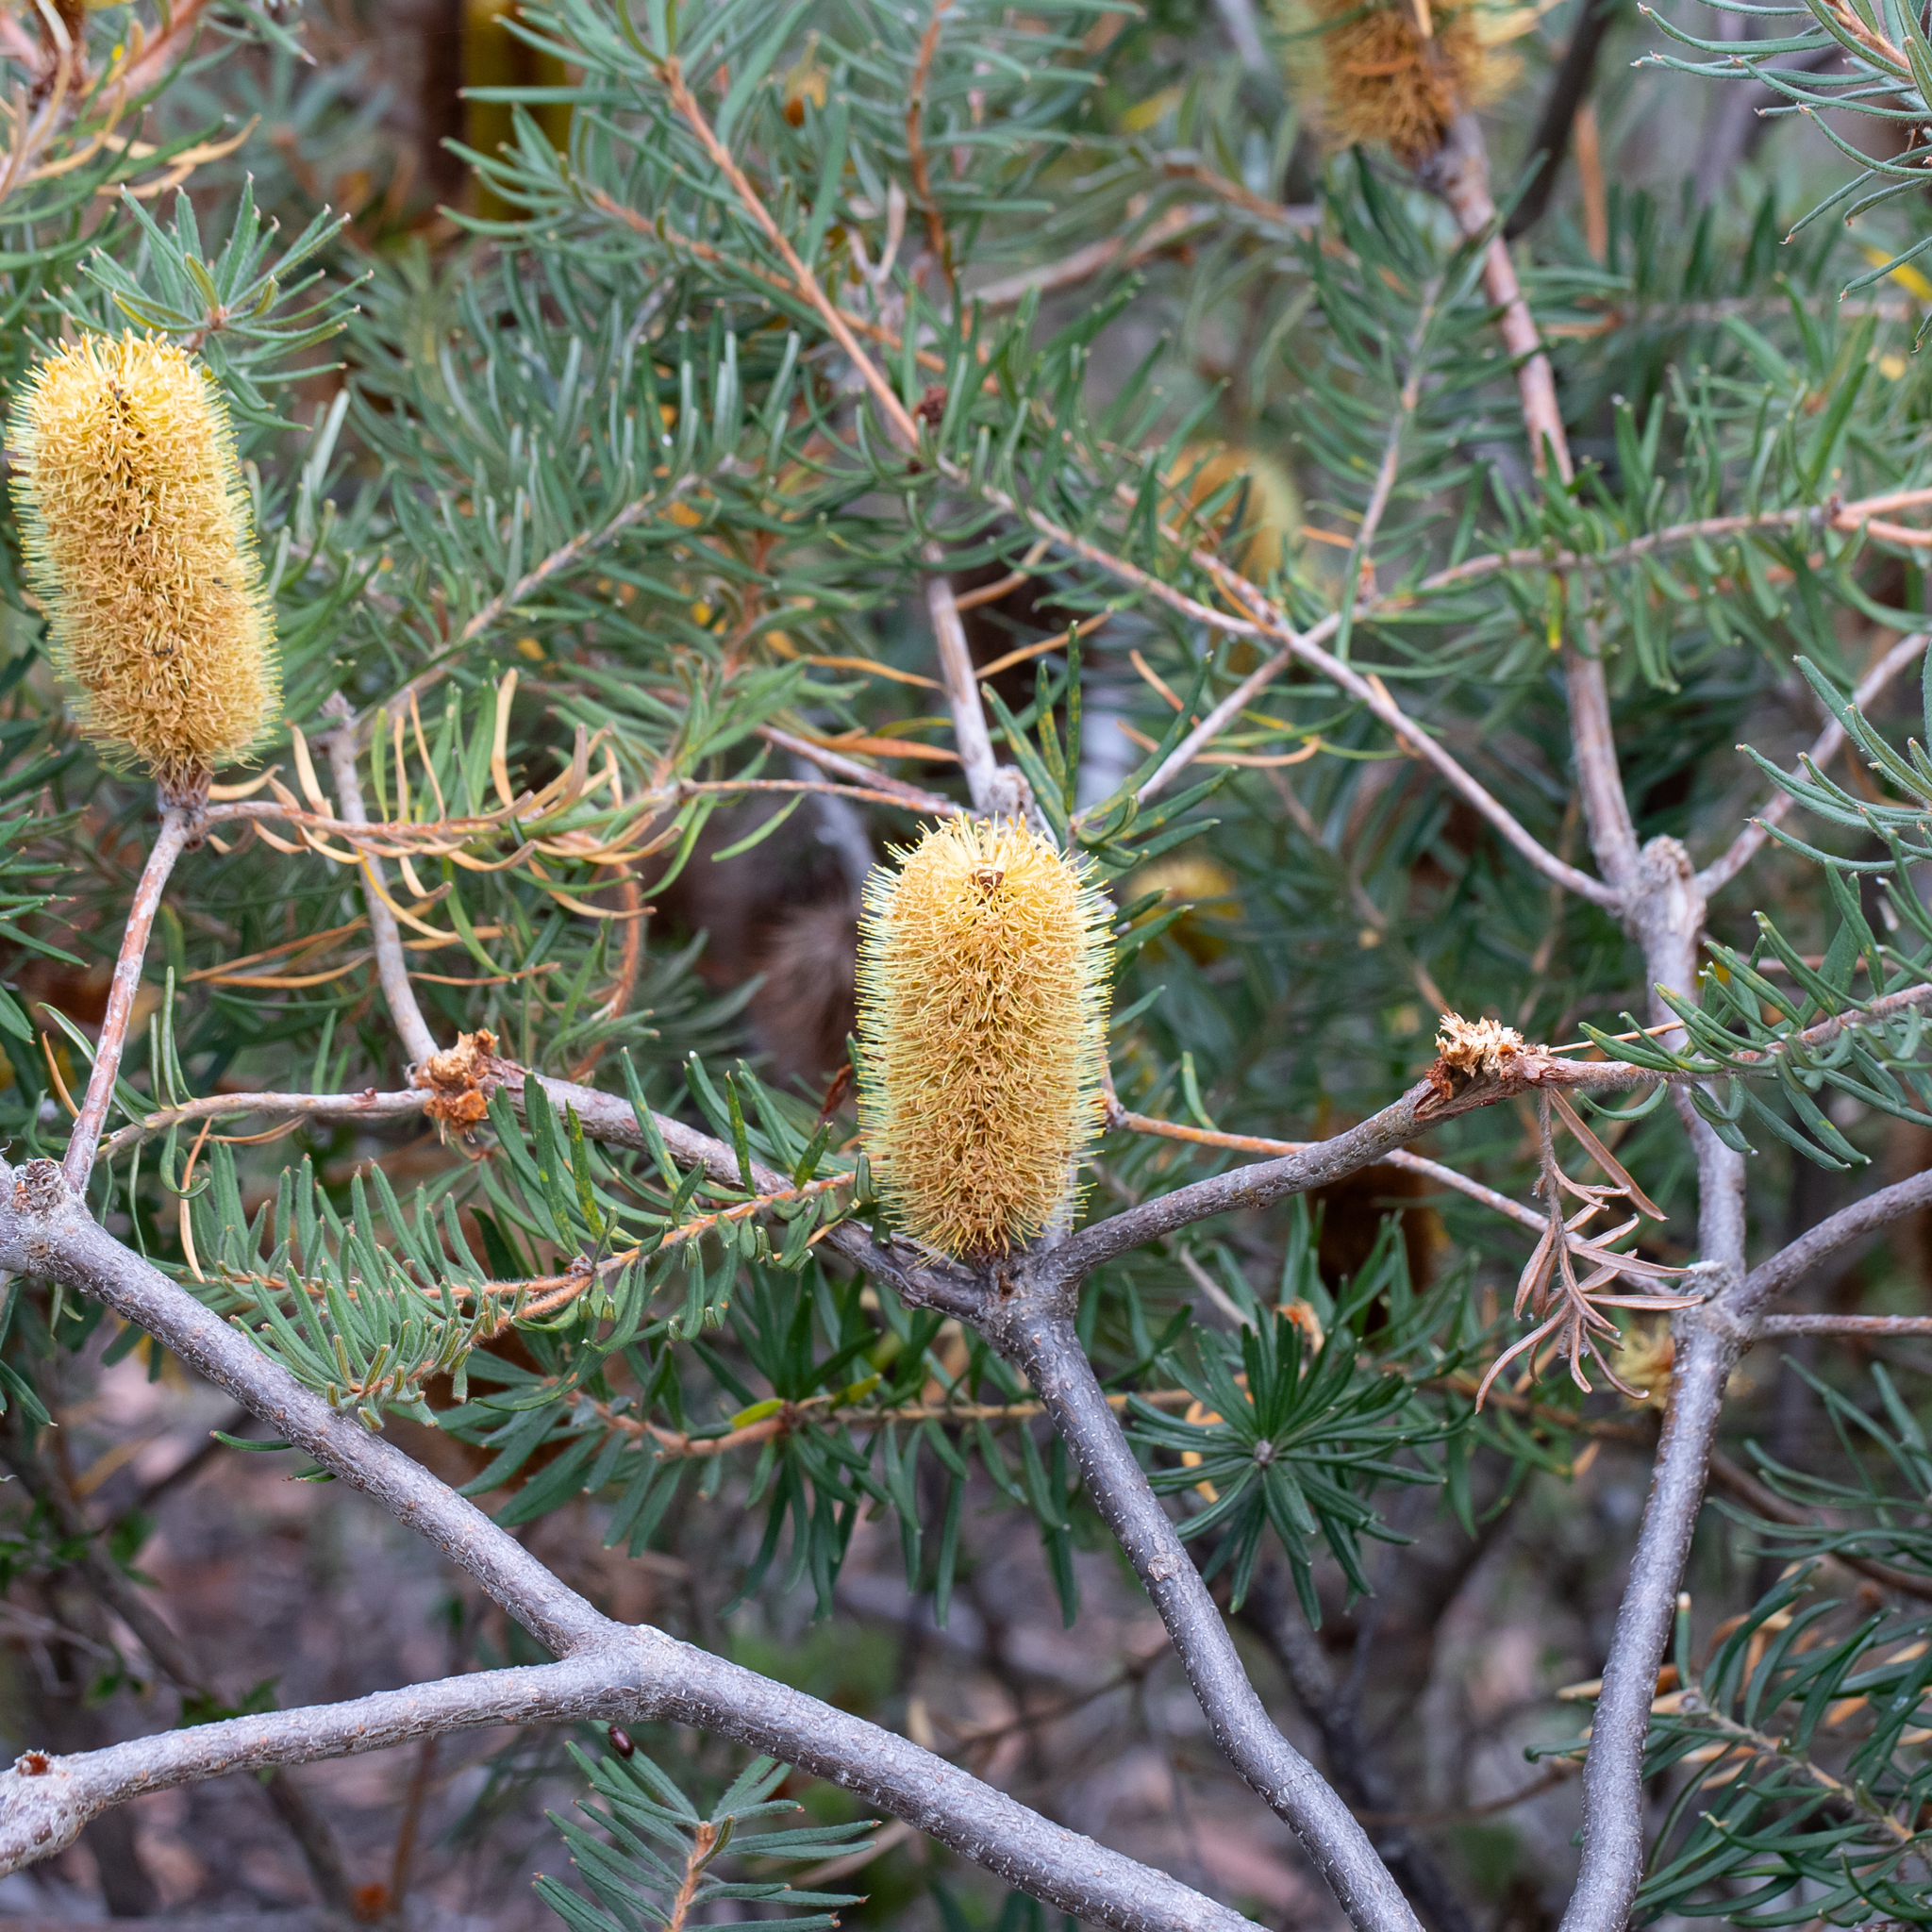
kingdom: Plantae
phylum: Tracheophyta
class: Magnoliopsida
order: Proteales
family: Proteaceae
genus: Banksia
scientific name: Banksia marginata
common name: Silver banksia
